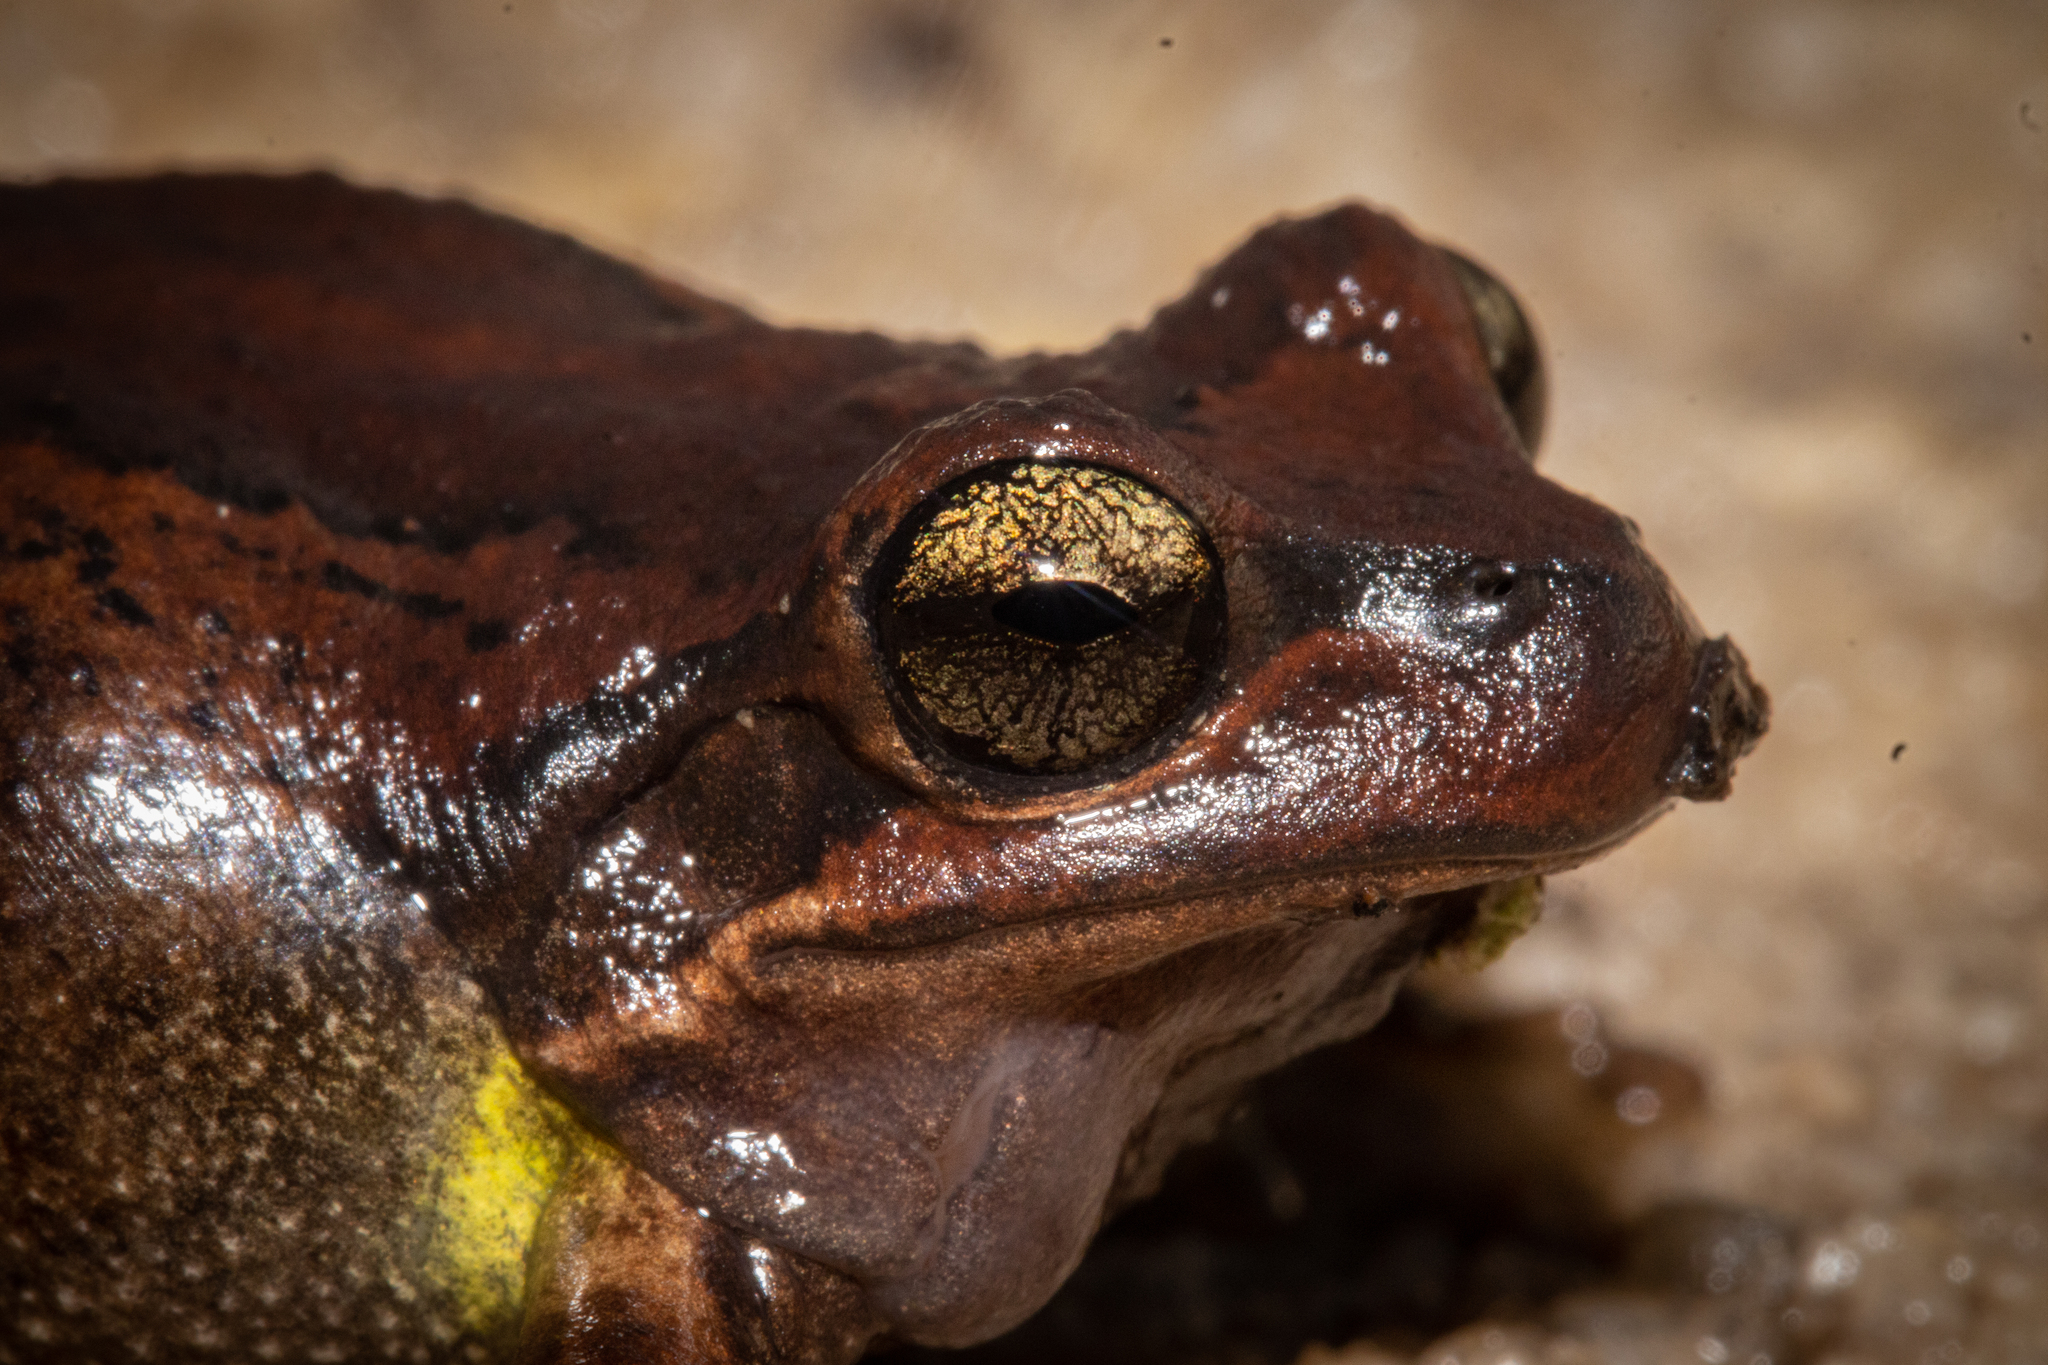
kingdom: Animalia
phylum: Chordata
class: Amphibia
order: Anura
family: Pelodryadidae
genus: Litoria
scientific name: Litoria ewingii
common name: Southern brown tree frog
